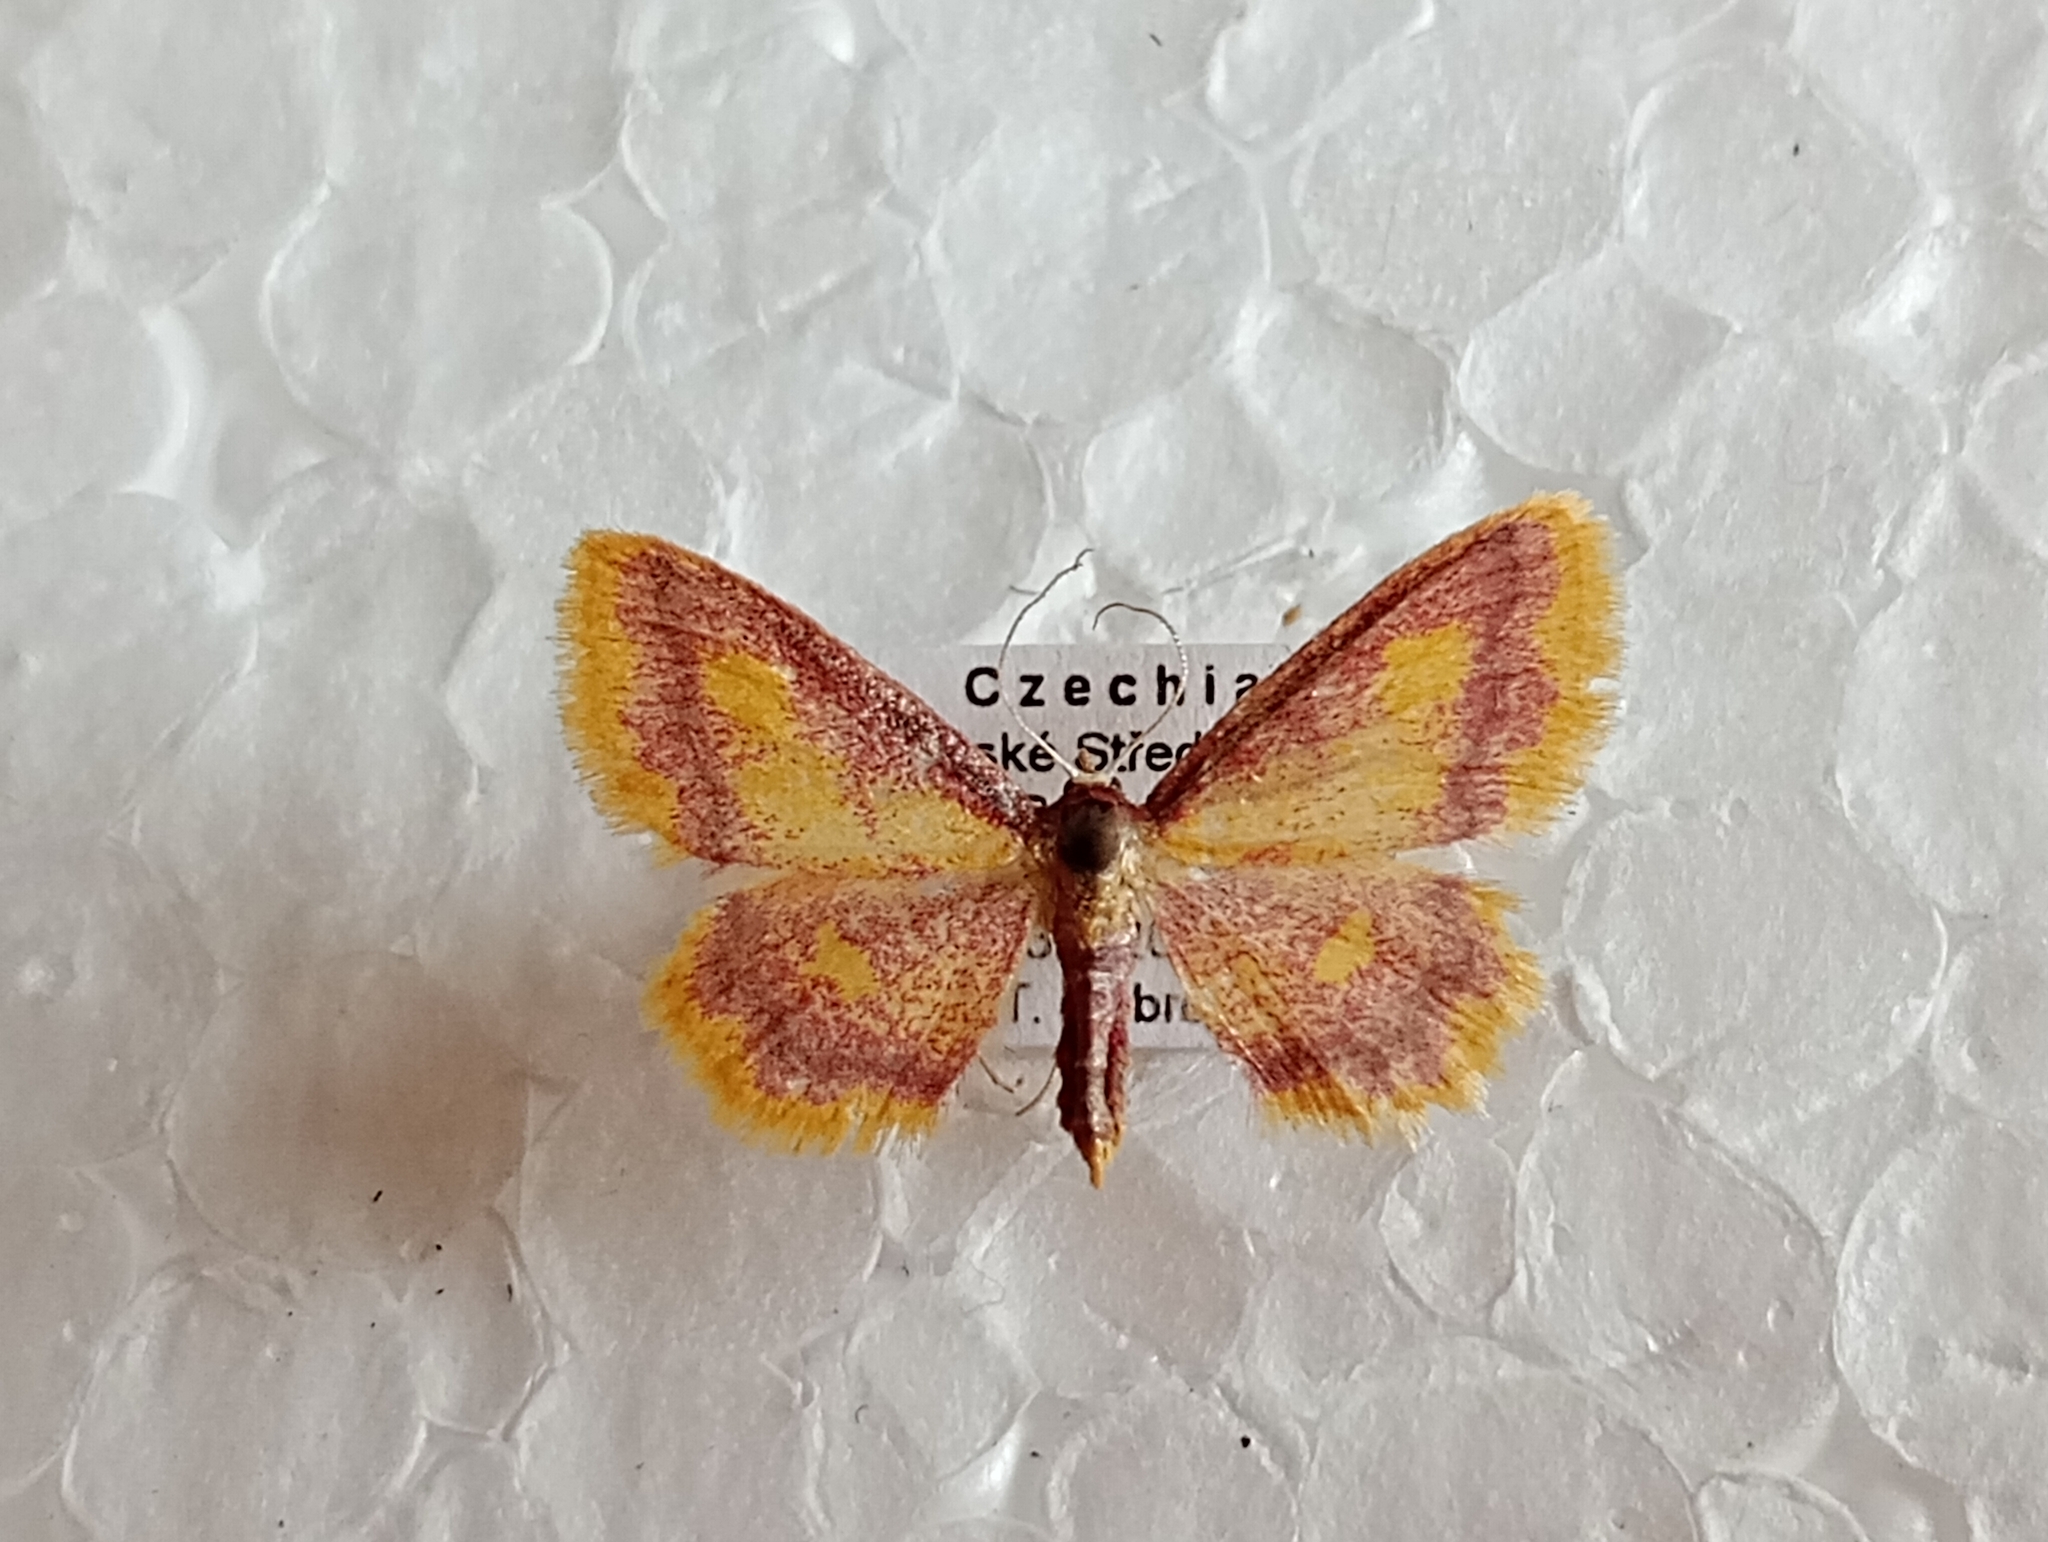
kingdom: Animalia
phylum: Arthropoda
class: Insecta
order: Lepidoptera
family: Geometridae
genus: Idaea
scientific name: Idaea muricata
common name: Purple-bordered gold
